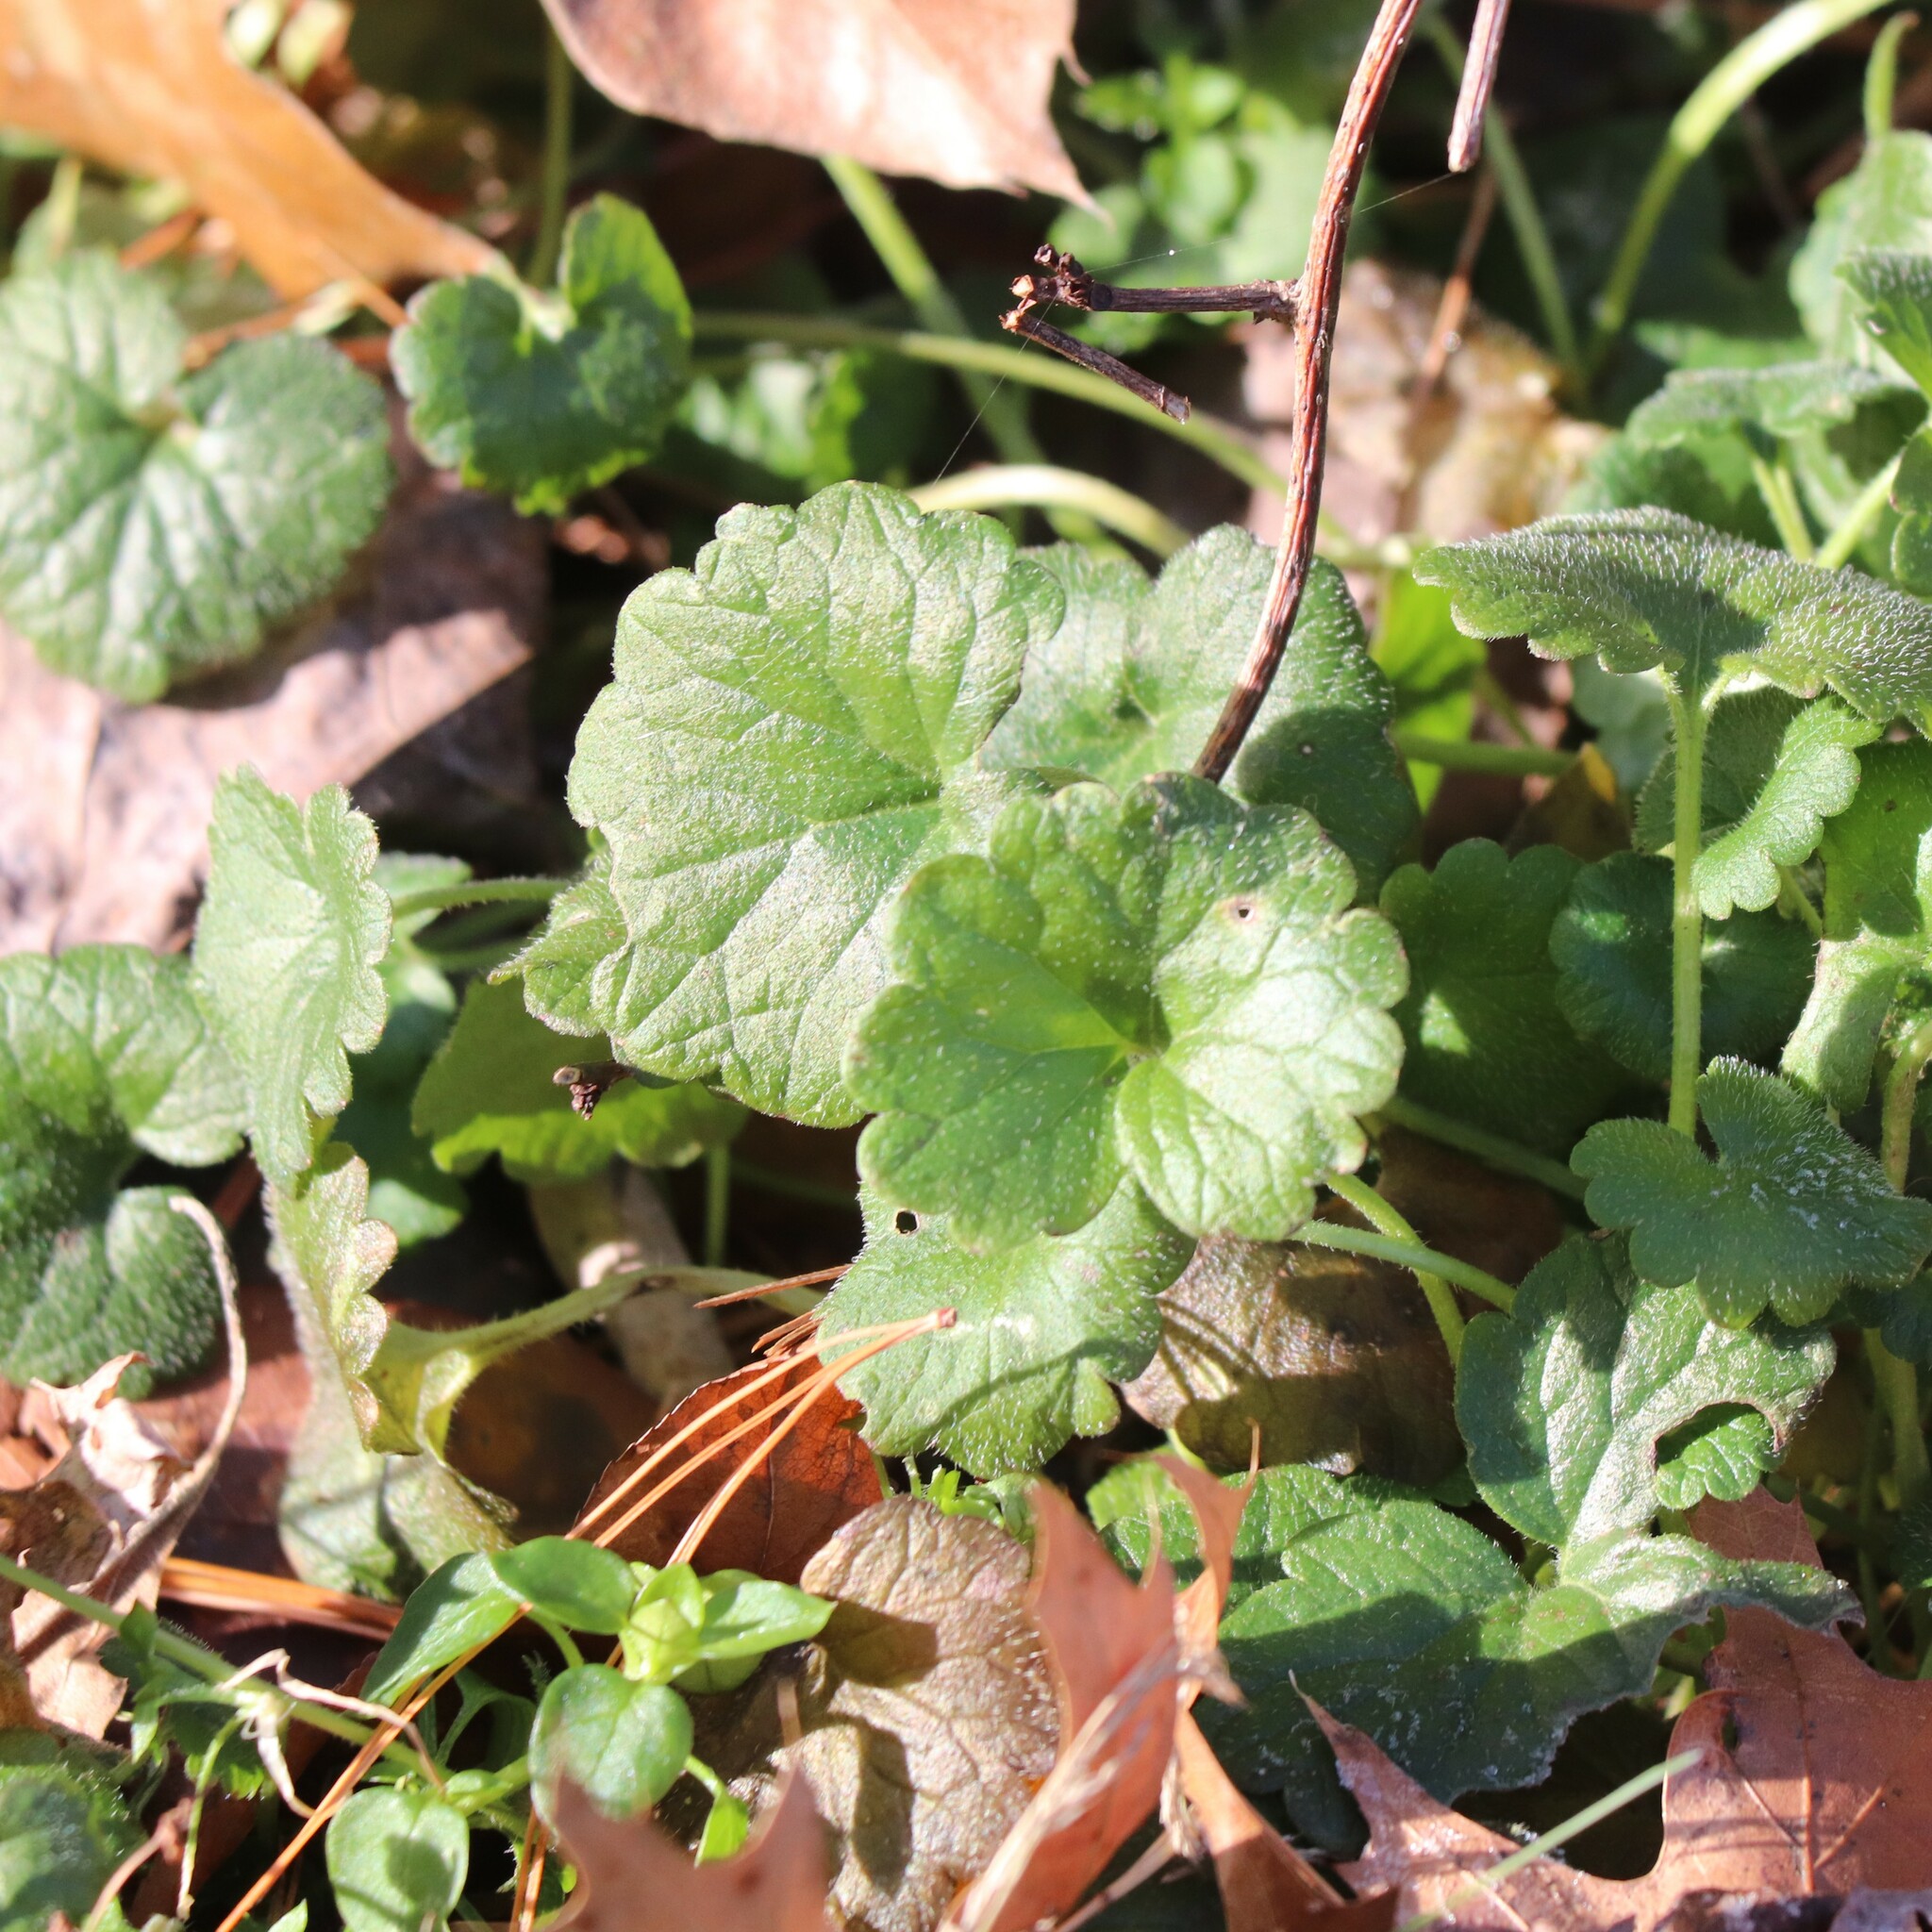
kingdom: Plantae
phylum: Tracheophyta
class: Magnoliopsida
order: Lamiales
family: Lamiaceae
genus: Glechoma
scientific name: Glechoma hederacea
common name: Ground ivy
